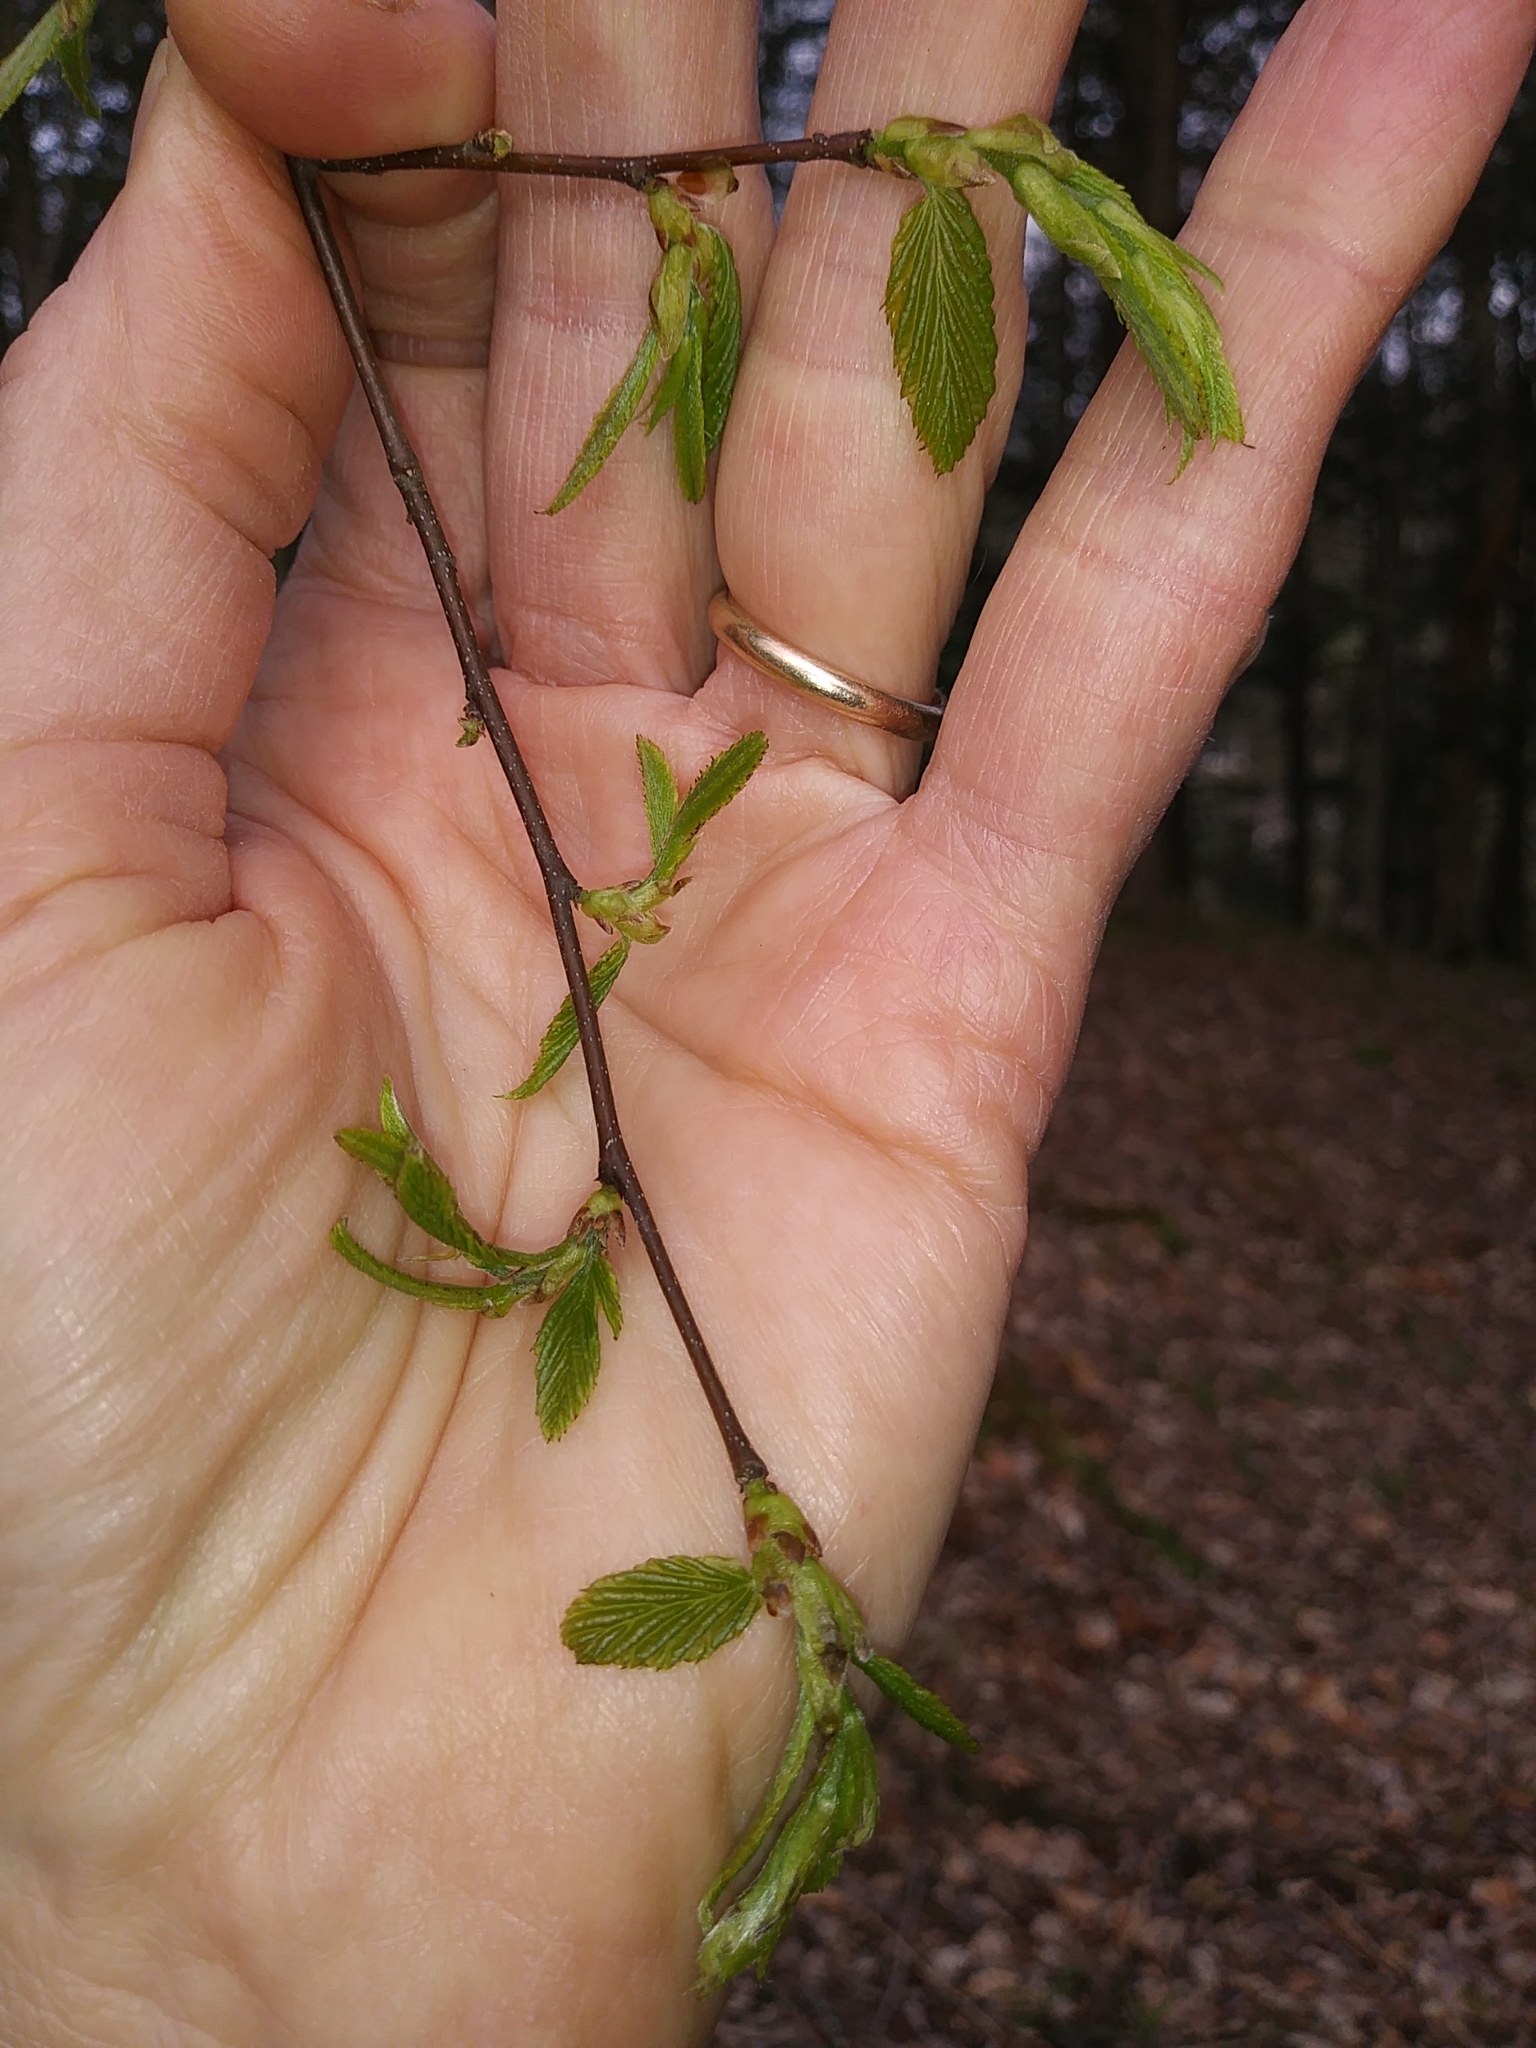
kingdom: Plantae
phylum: Tracheophyta
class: Magnoliopsida
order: Fagales
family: Betulaceae
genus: Carpinus
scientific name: Carpinus caroliniana
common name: American hornbeam
